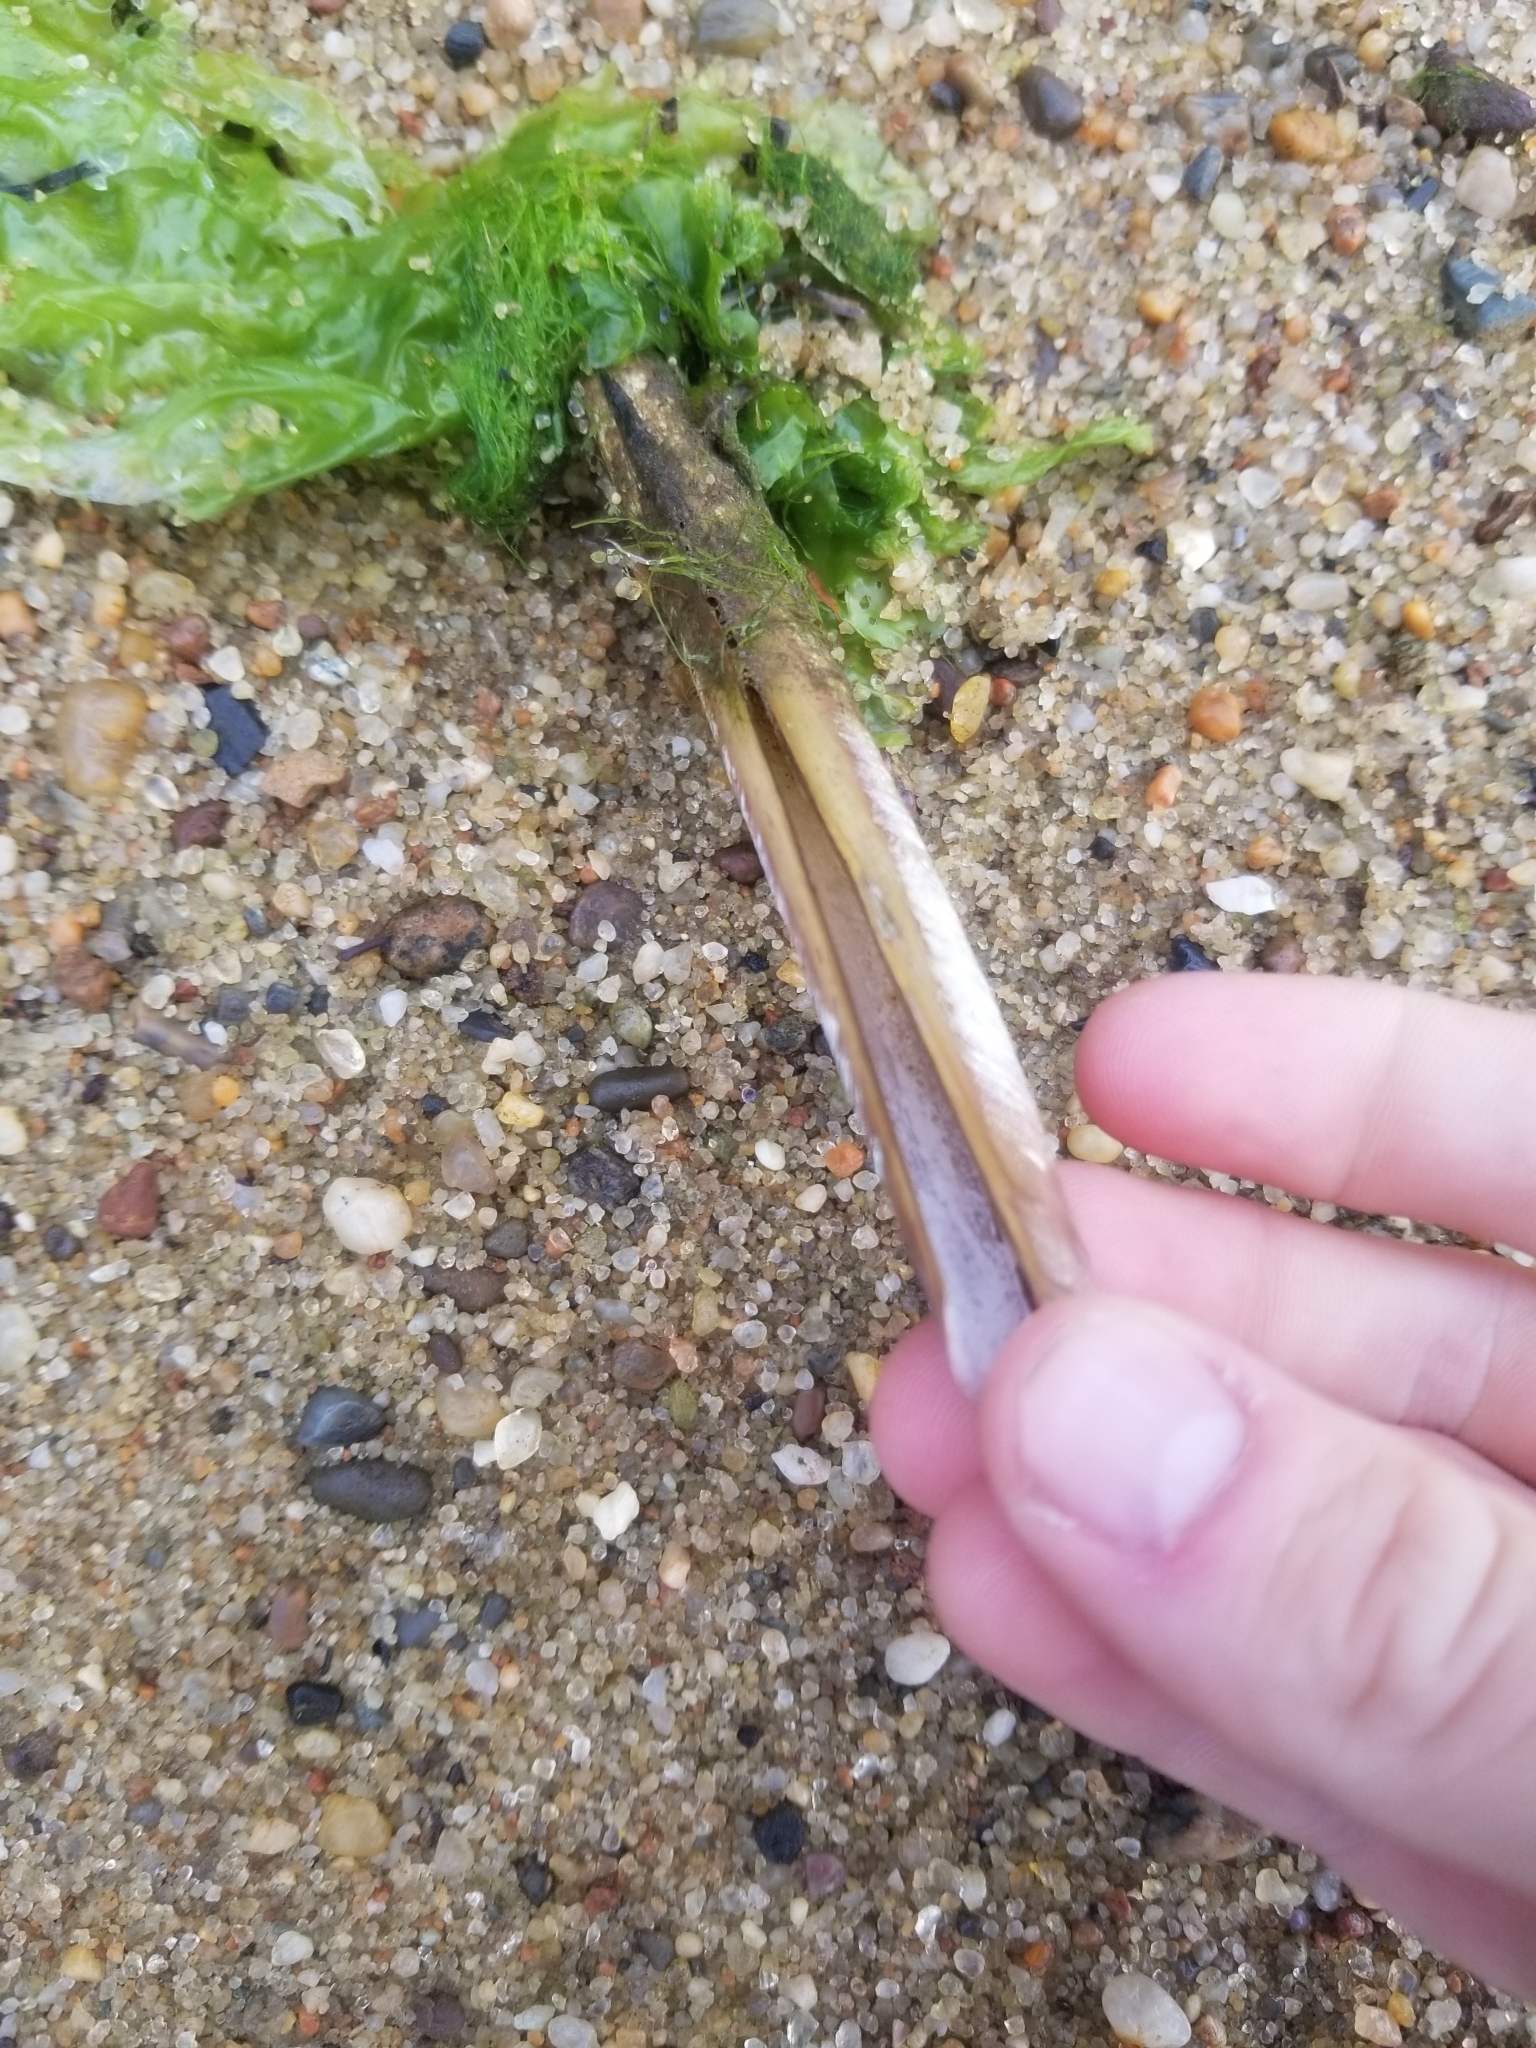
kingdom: Animalia
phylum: Mollusca
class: Bivalvia
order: Adapedonta
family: Pharidae
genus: Ensis
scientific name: Ensis leei
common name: American jack knife clam
